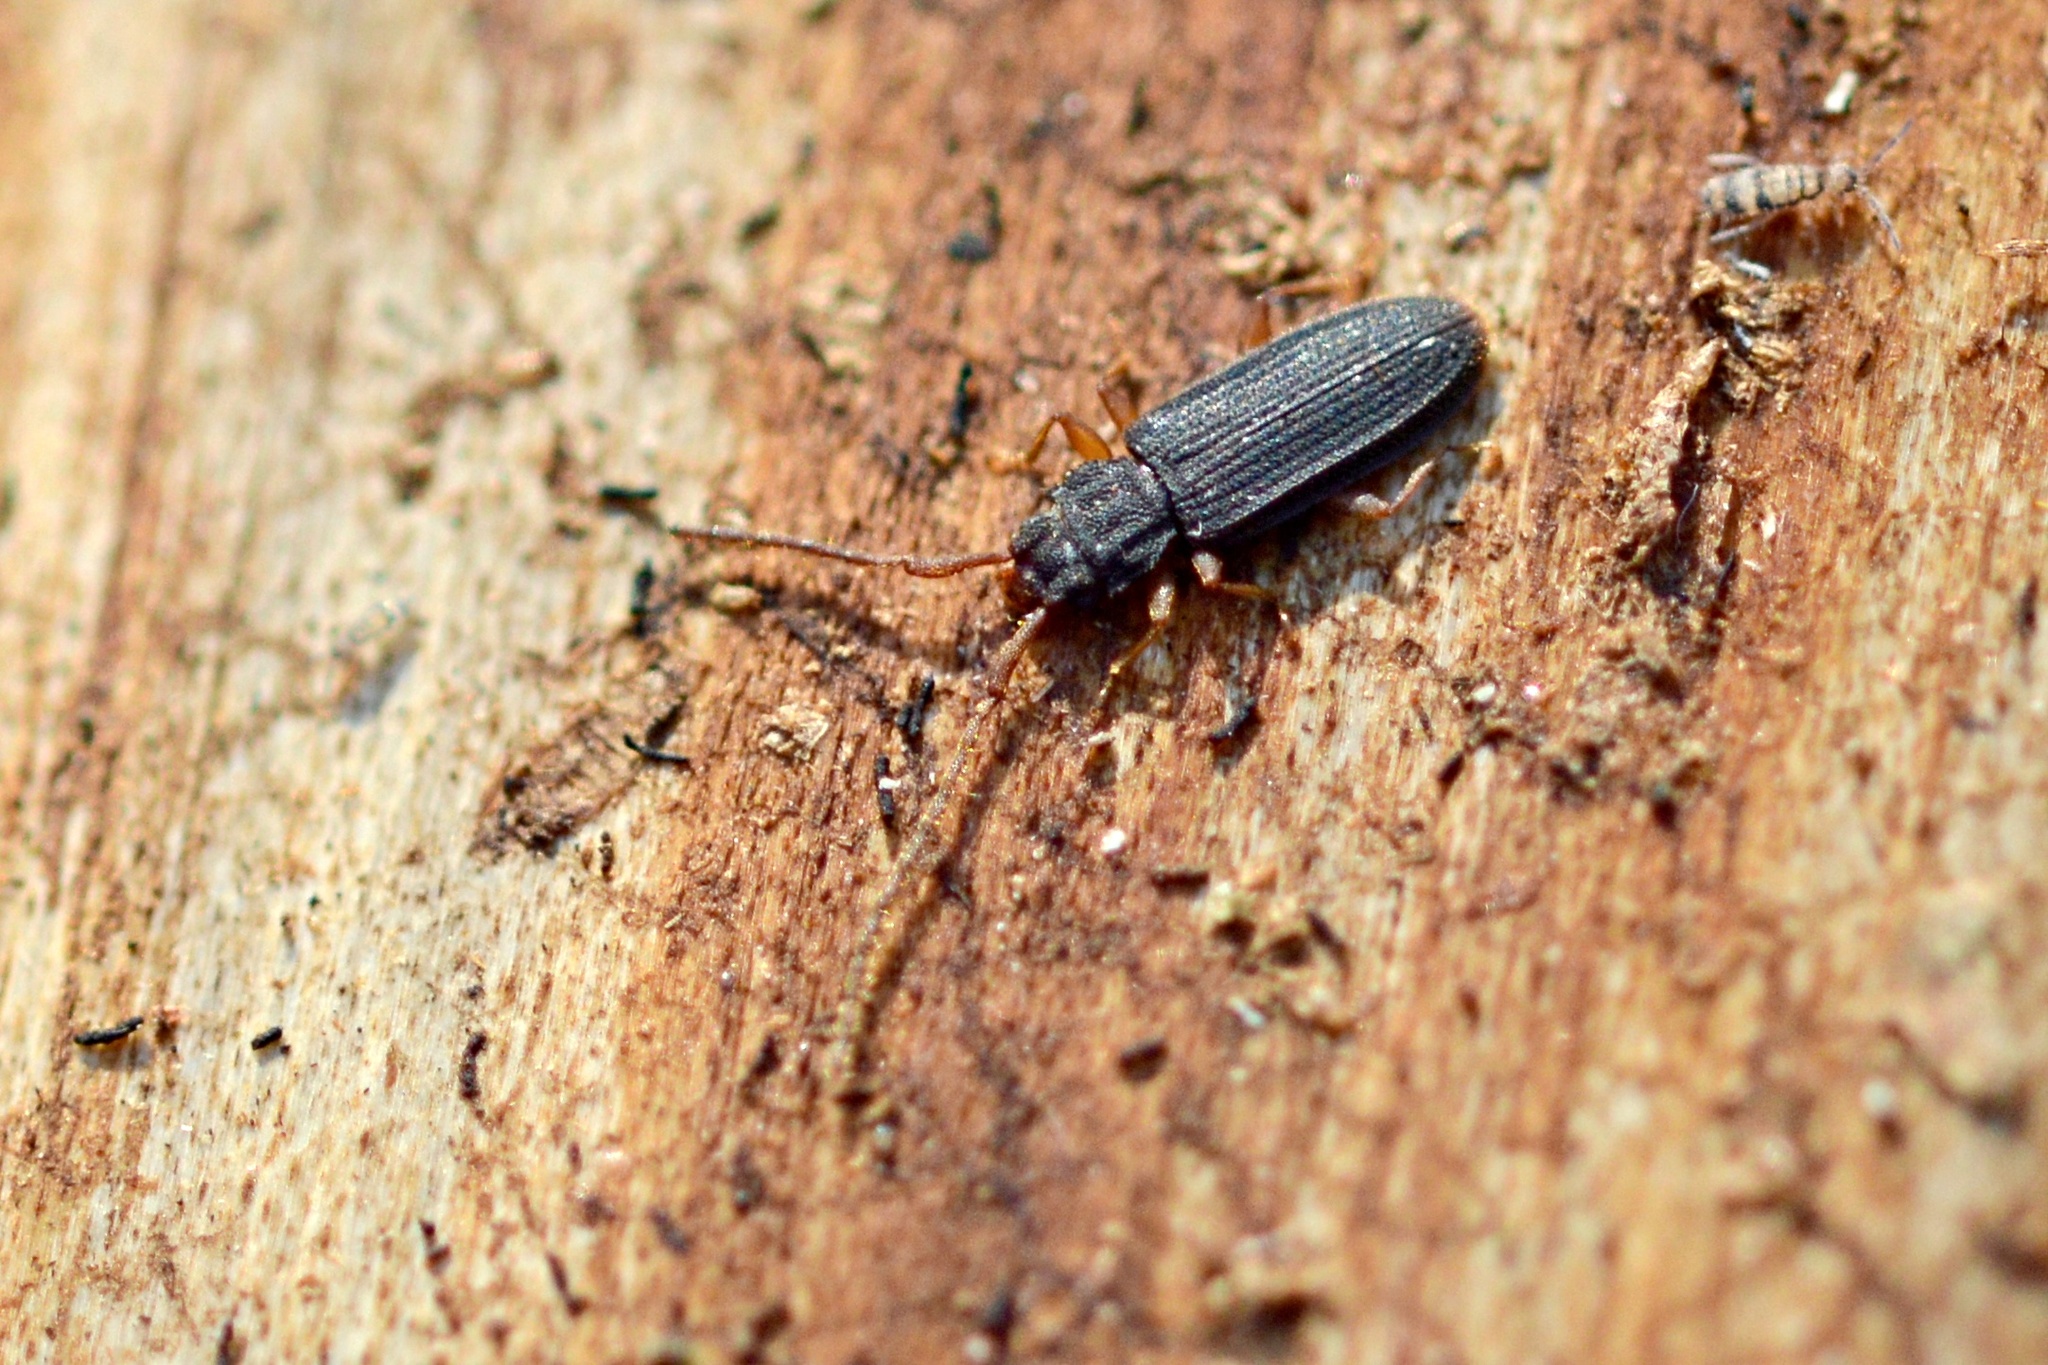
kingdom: Animalia
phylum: Arthropoda
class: Insecta
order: Coleoptera
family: Silvanidae
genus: Uleiota
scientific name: Uleiota planatus
